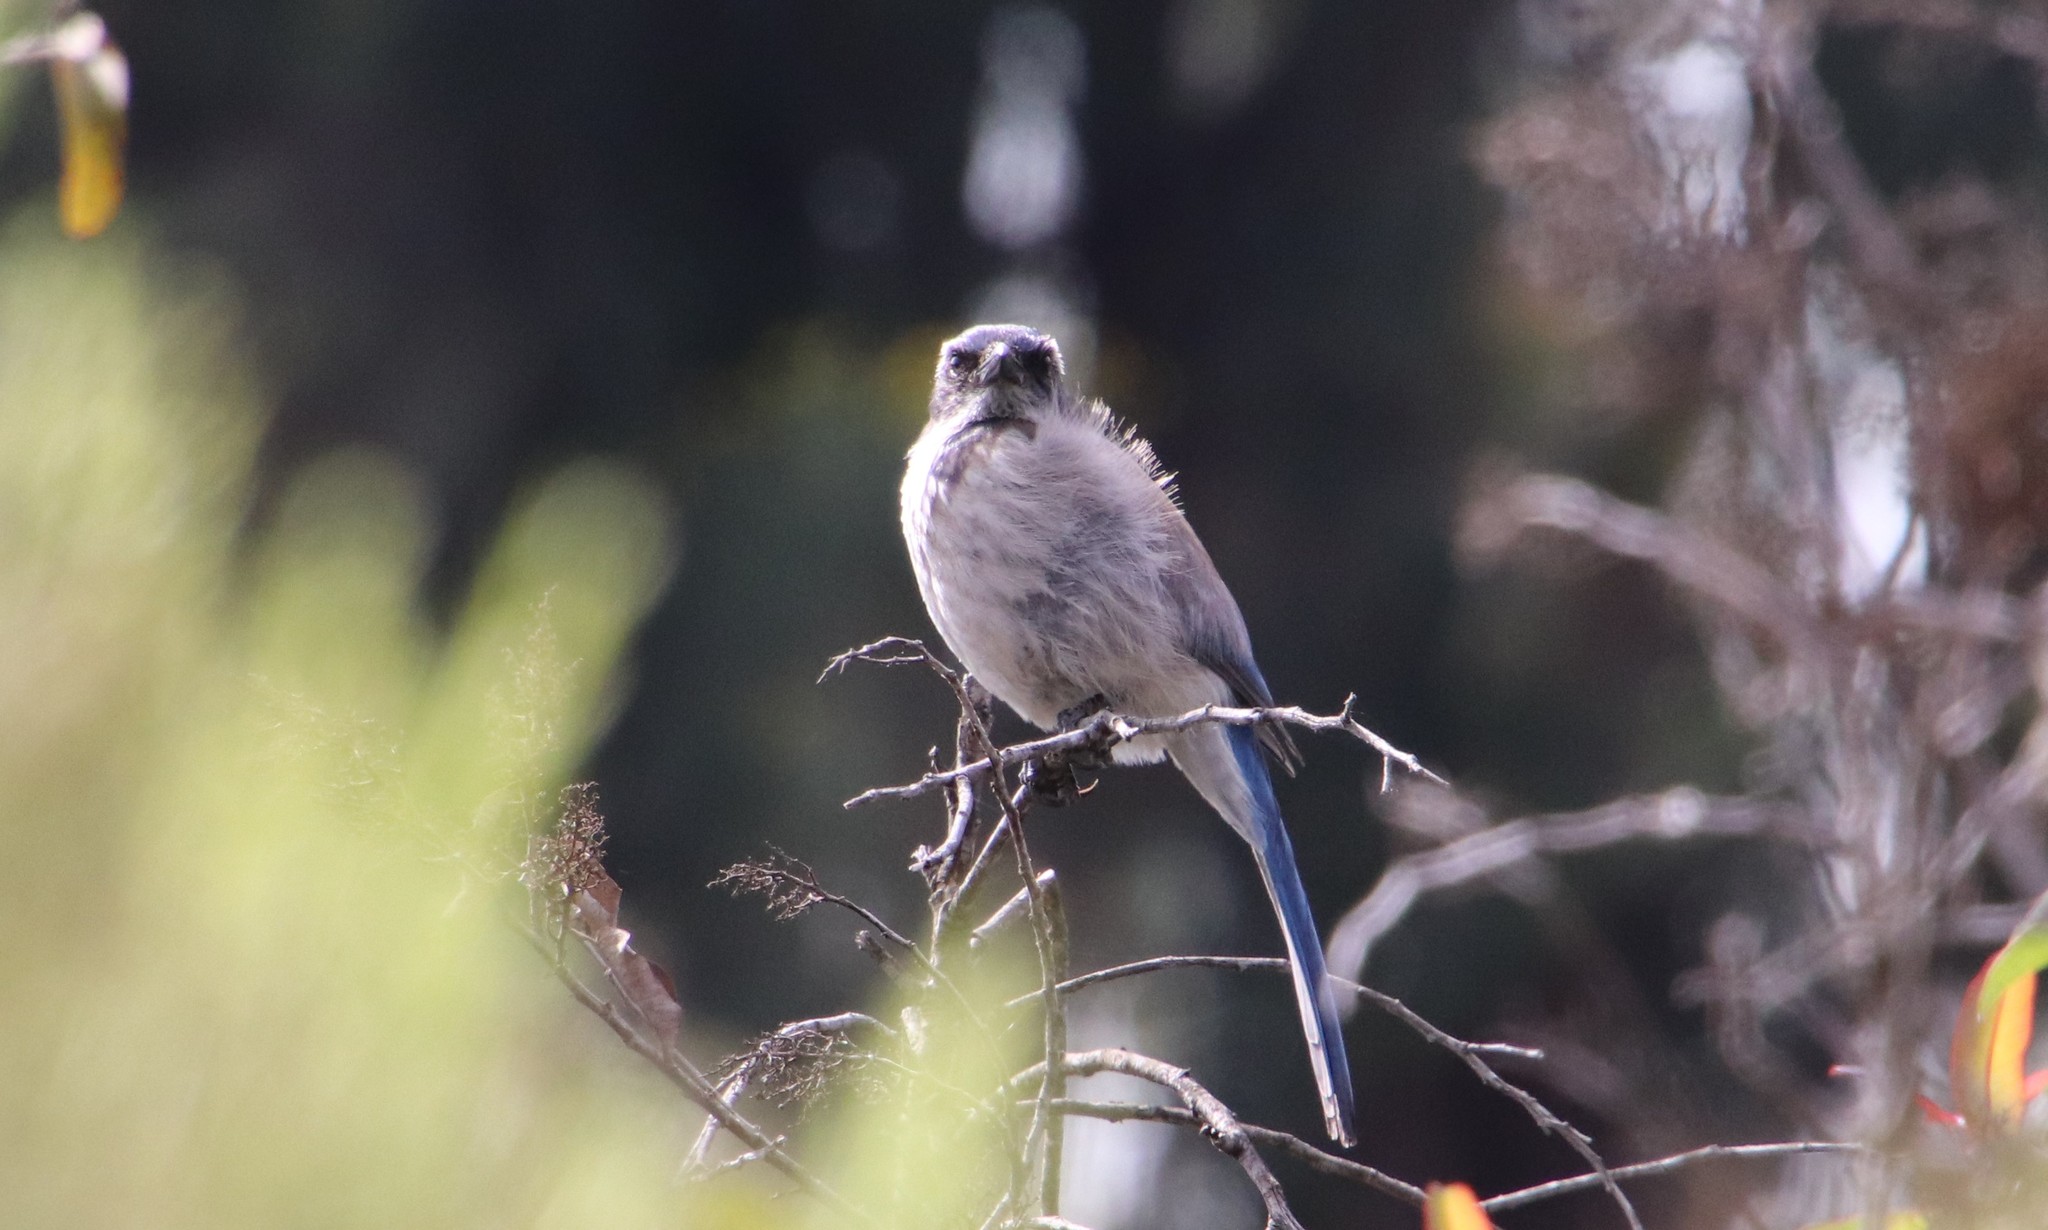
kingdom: Animalia
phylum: Chordata
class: Aves
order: Passeriformes
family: Corvidae
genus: Aphelocoma
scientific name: Aphelocoma californica
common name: California scrub-jay
